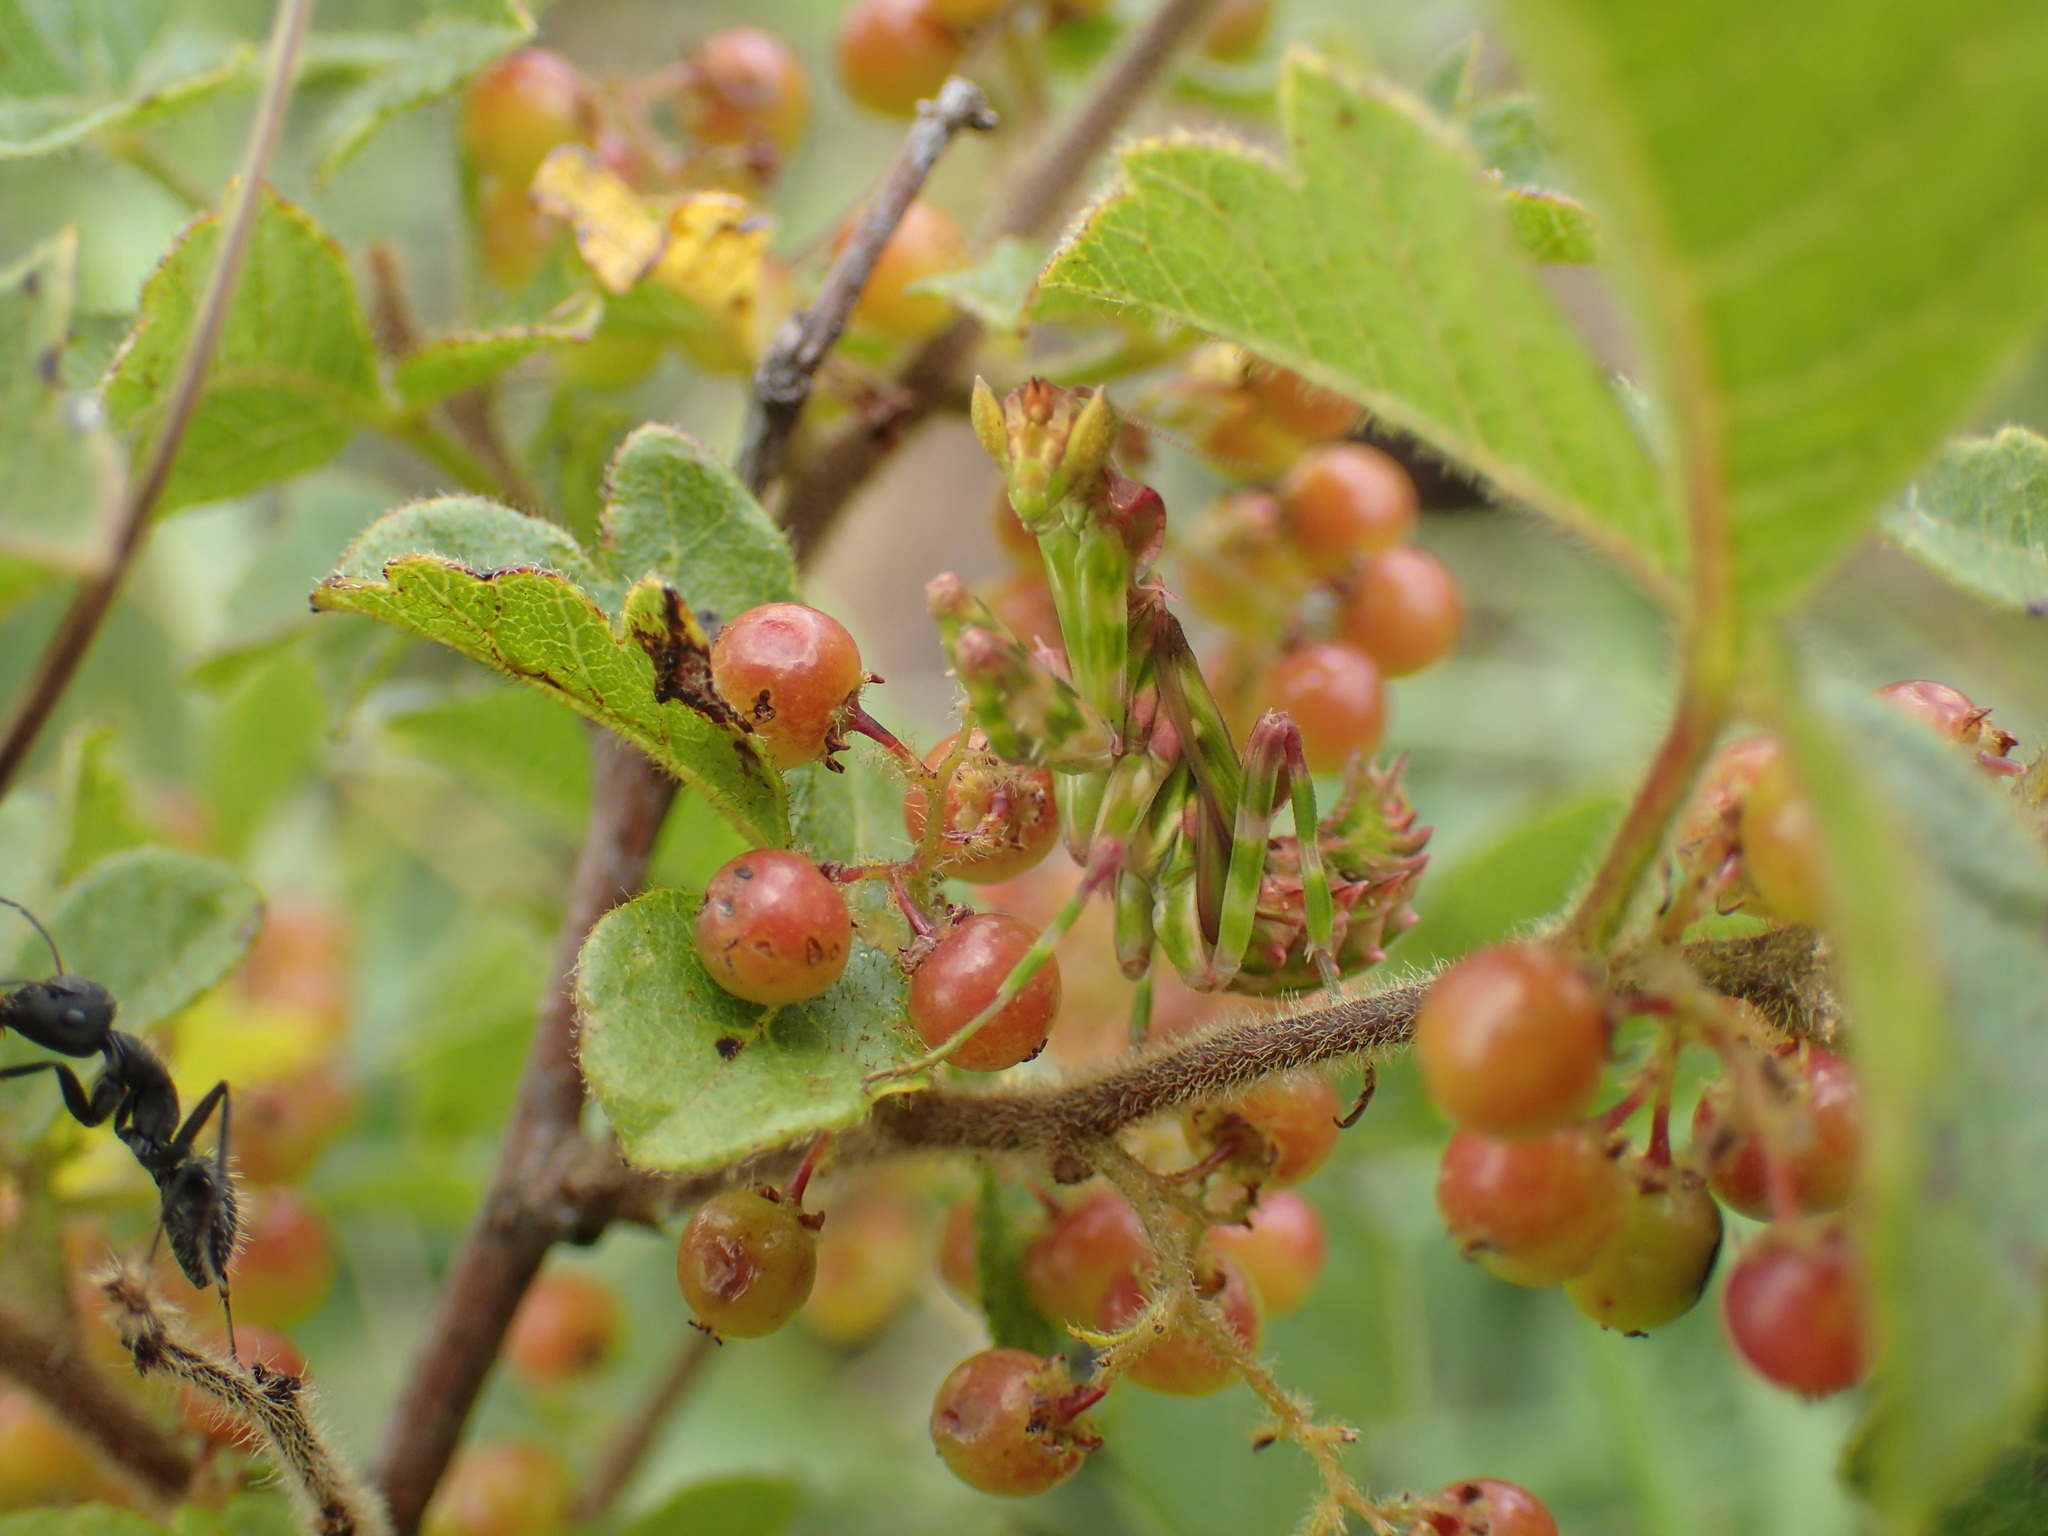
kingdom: Animalia
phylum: Arthropoda
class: Insecta
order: Mantodea
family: Galinthiadidae
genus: Harpagomantis
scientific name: Harpagomantis tricolor
